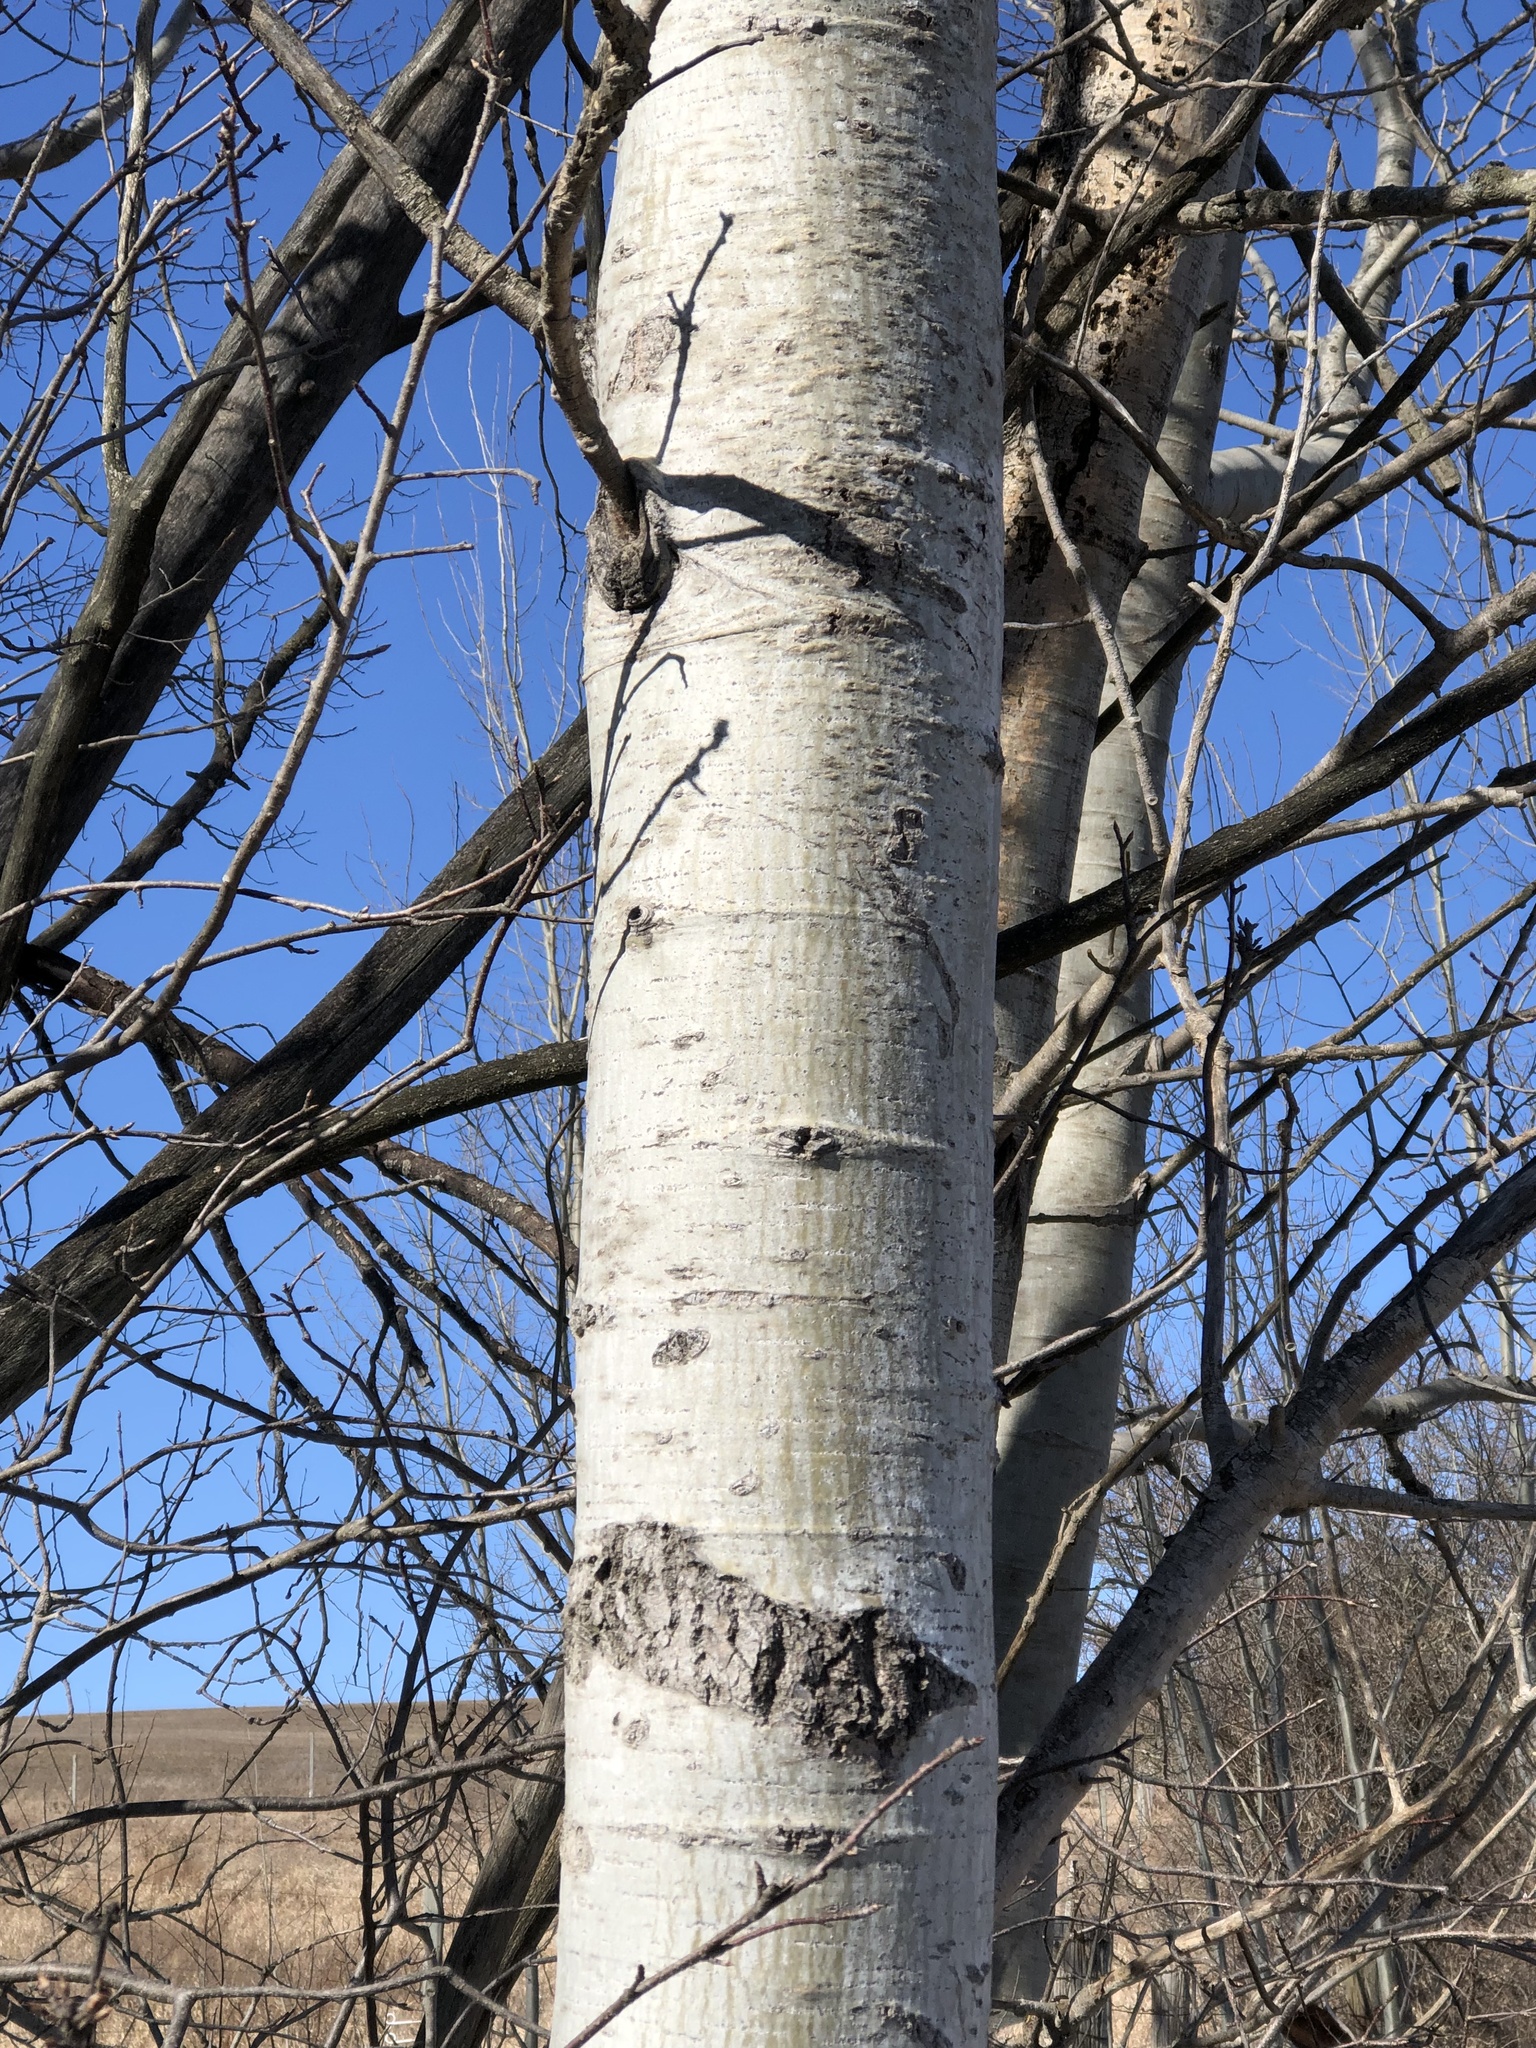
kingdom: Plantae
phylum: Tracheophyta
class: Magnoliopsida
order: Malpighiales
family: Salicaceae
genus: Populus
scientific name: Populus tremuloides
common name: Quaking aspen
